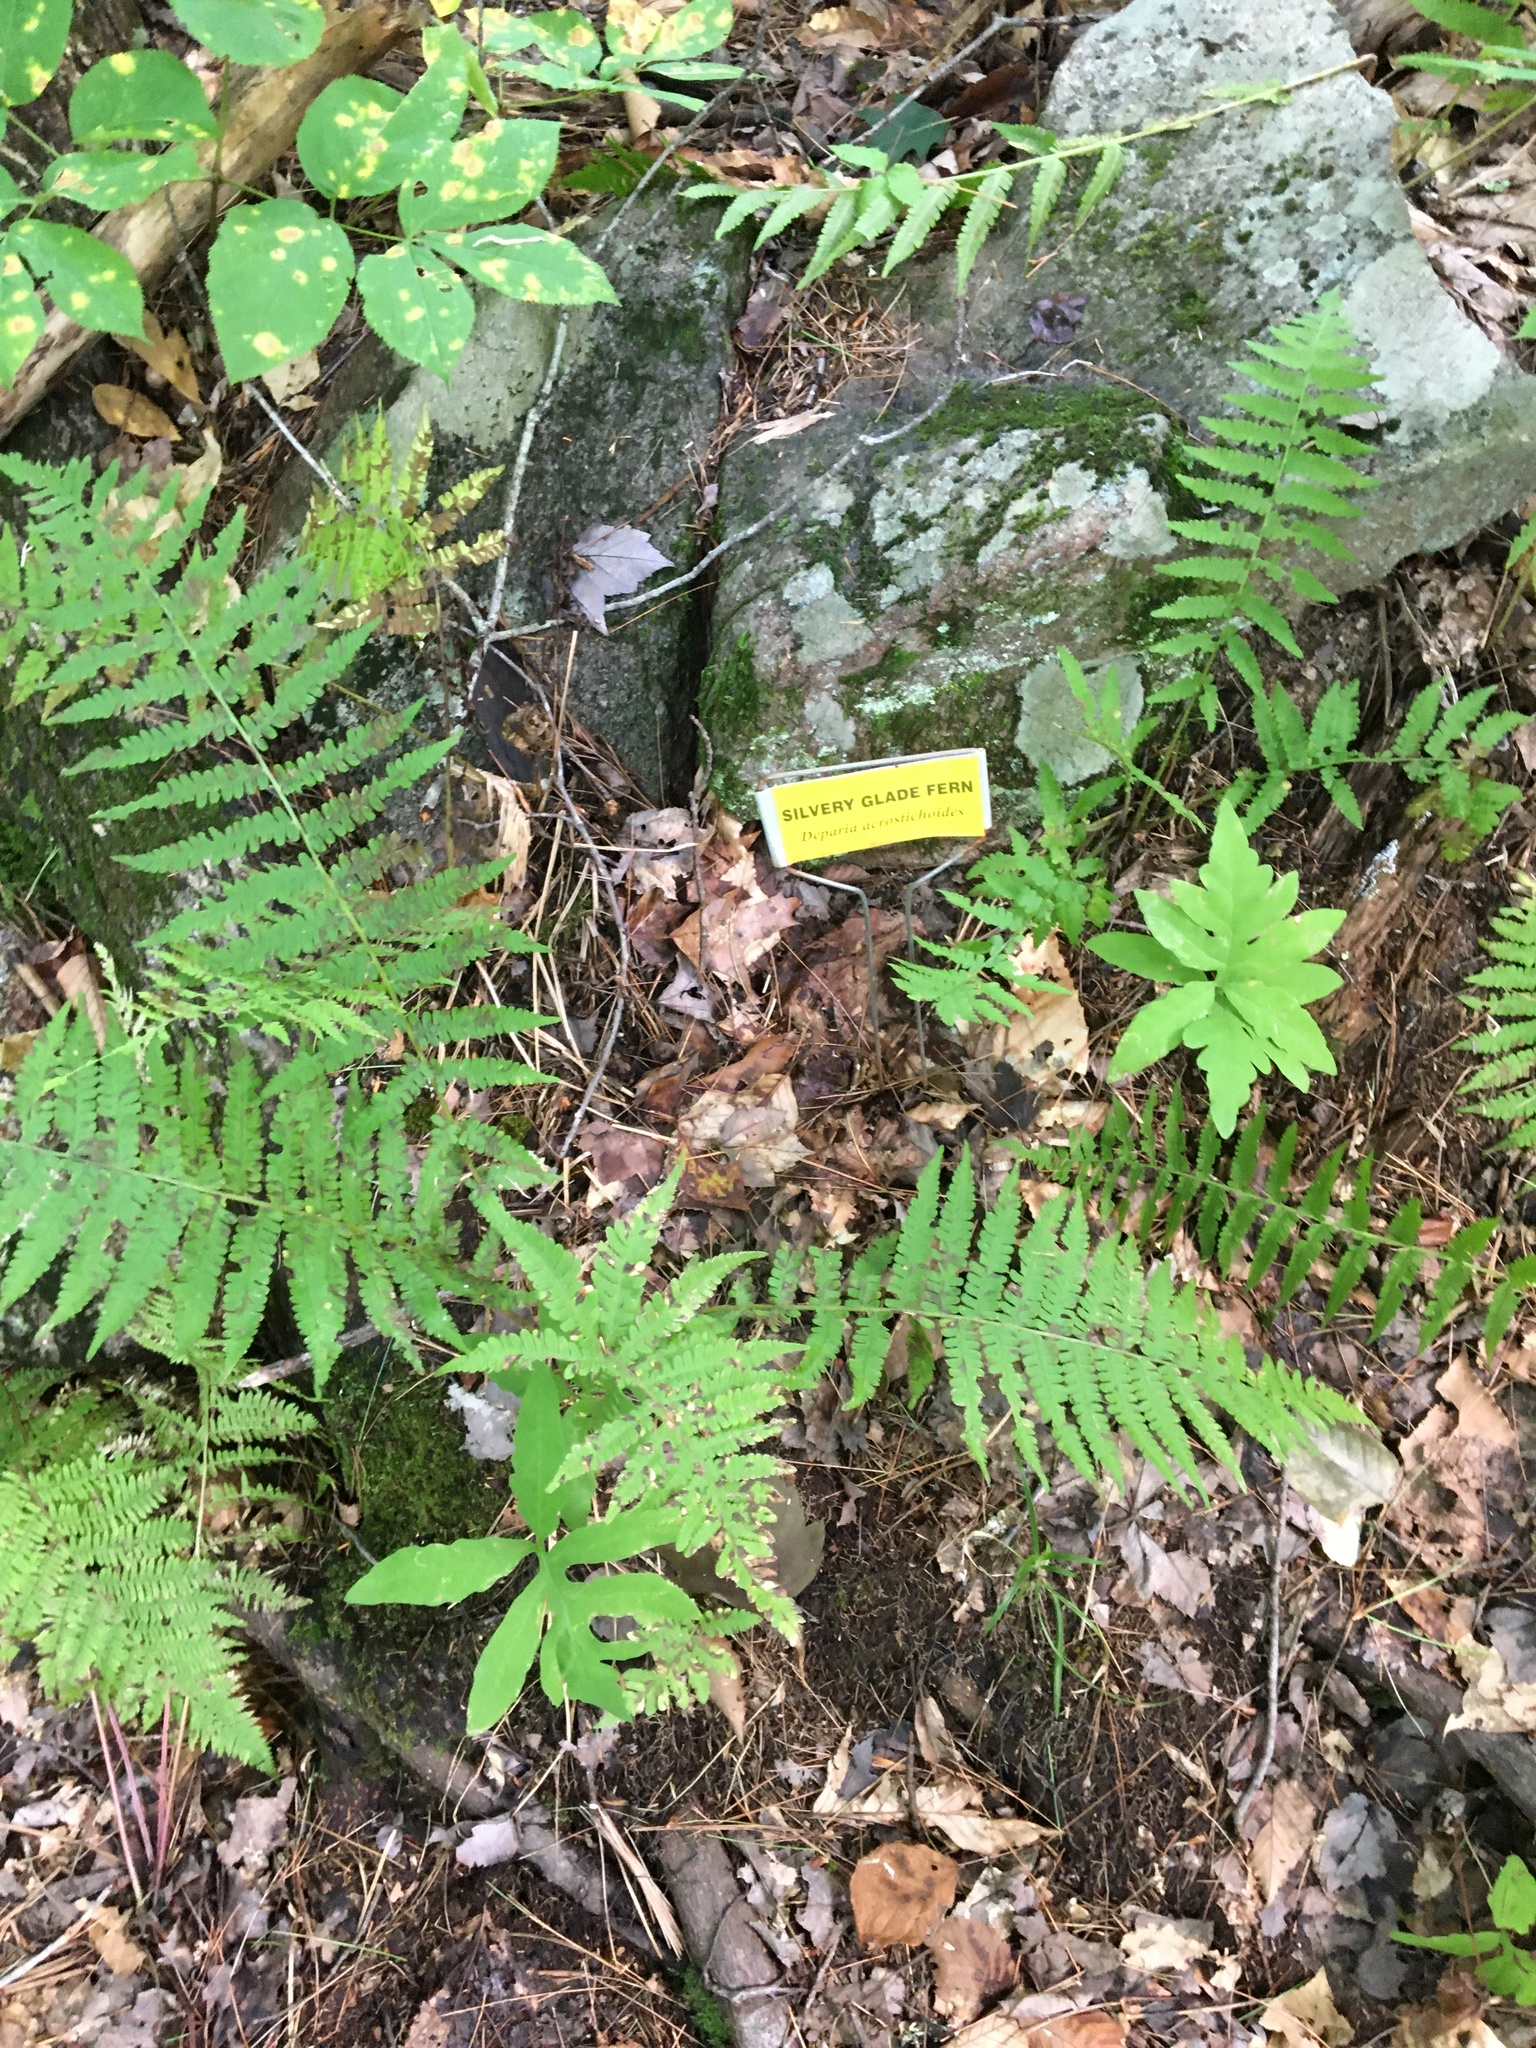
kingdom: Plantae
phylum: Tracheophyta
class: Polypodiopsida
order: Polypodiales
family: Athyriaceae
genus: Deparia
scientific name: Deparia acrostichoides
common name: Silver false spleenwort
